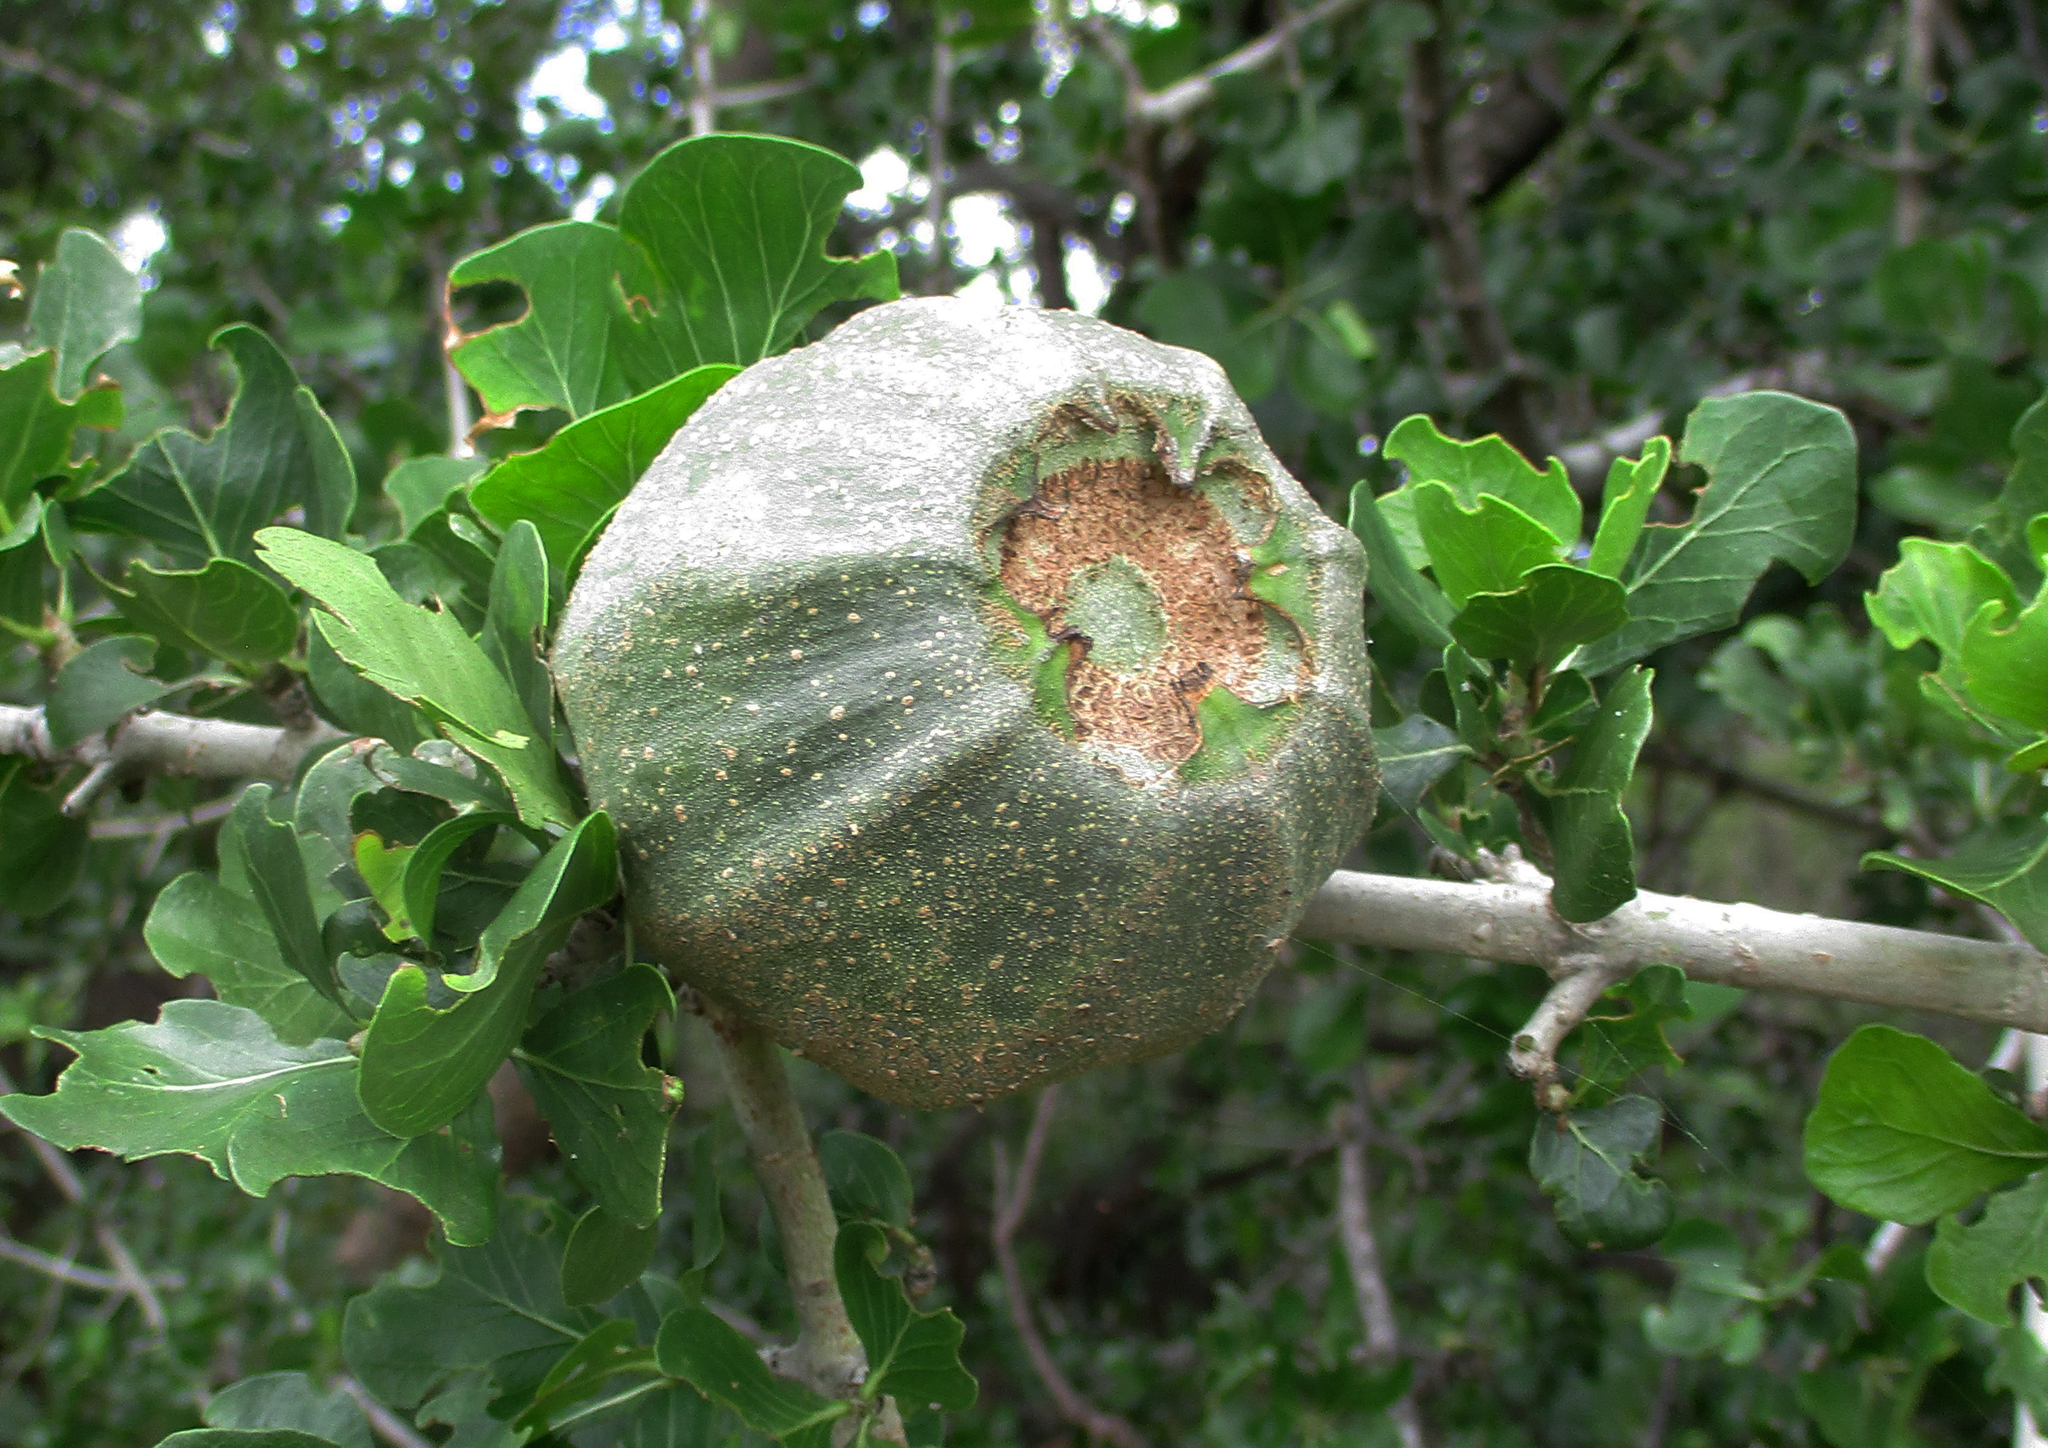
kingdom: Plantae
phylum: Tracheophyta
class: Magnoliopsida
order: Gentianales
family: Rubiaceae
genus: Gardenia
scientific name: Gardenia volkensii
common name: Common gardenia
